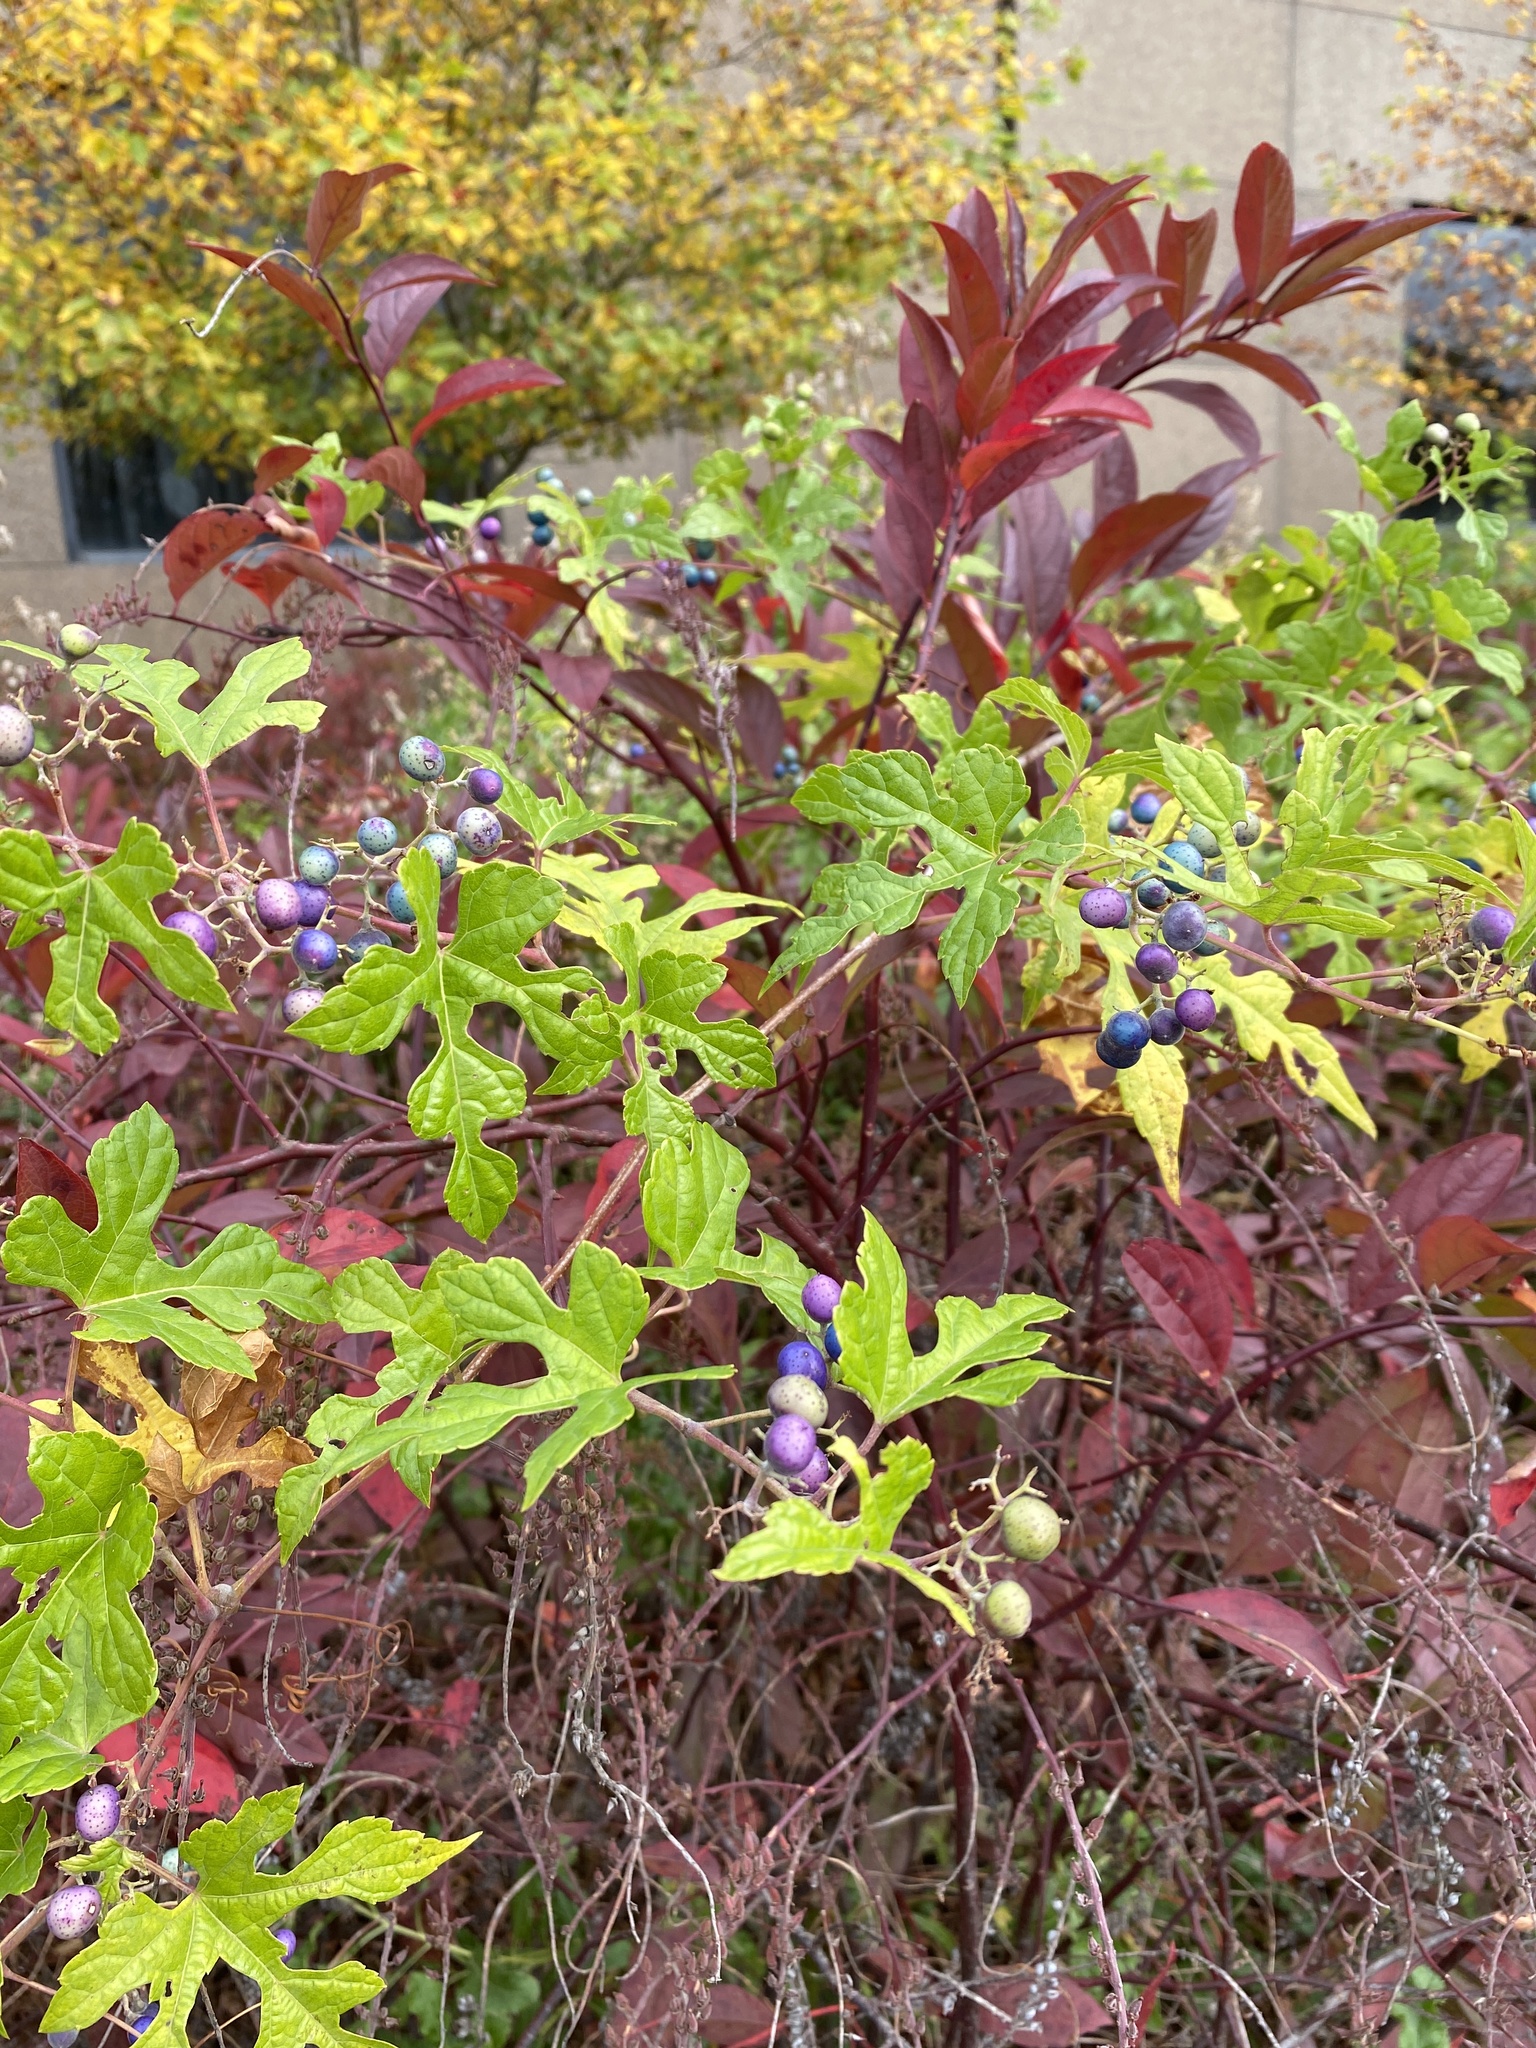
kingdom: Plantae
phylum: Tracheophyta
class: Magnoliopsida
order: Vitales
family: Vitaceae
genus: Ampelopsis
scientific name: Ampelopsis glandulosa
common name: Amur peppervine
